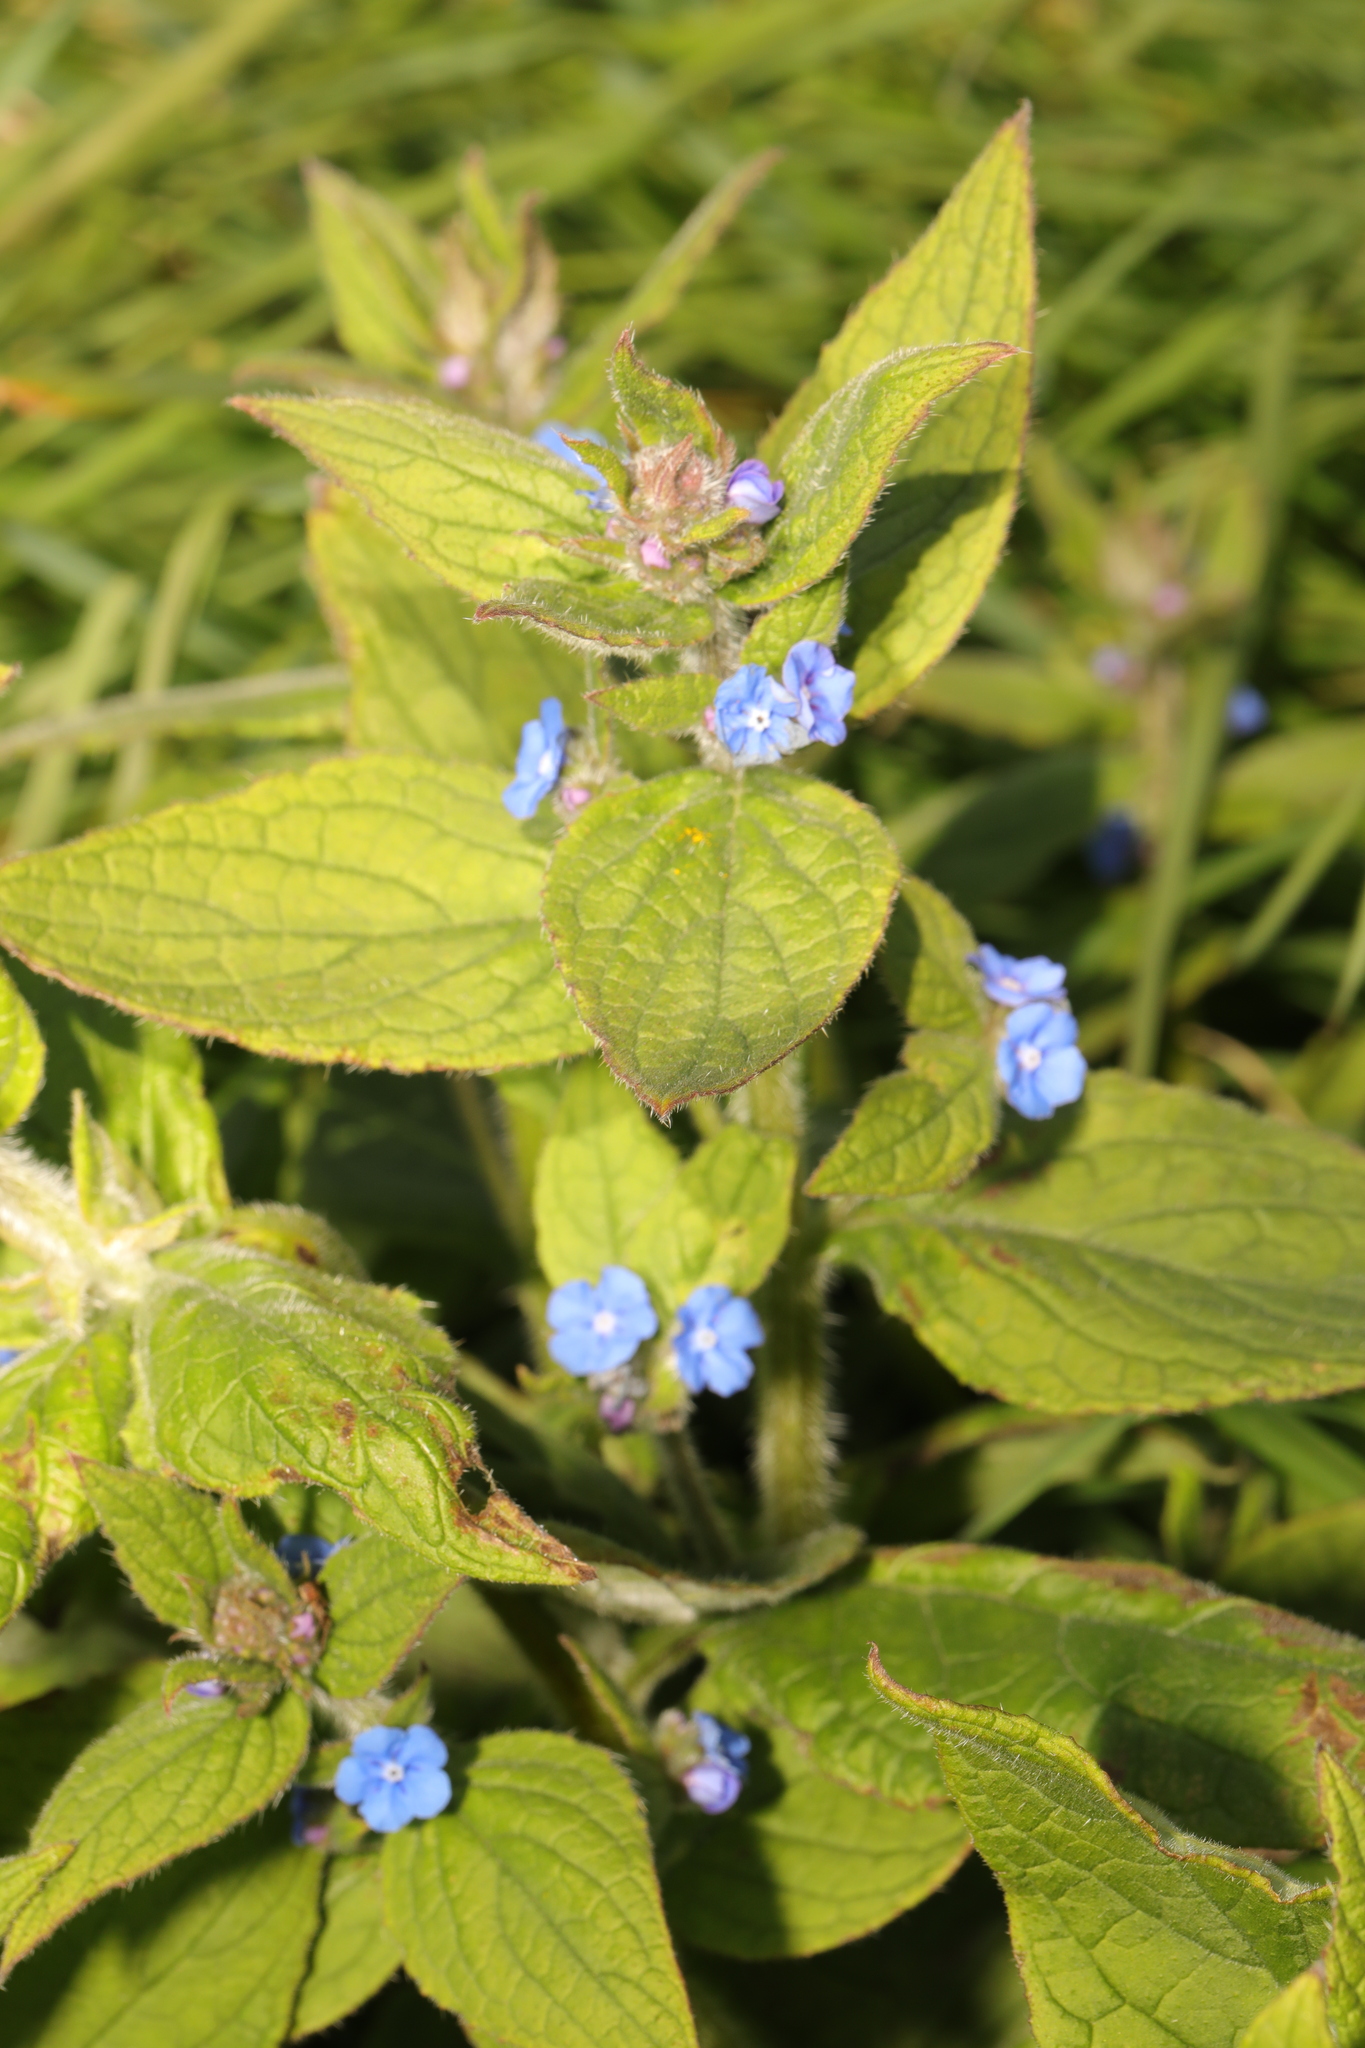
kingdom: Plantae
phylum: Tracheophyta
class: Magnoliopsida
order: Boraginales
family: Boraginaceae
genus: Pentaglottis
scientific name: Pentaglottis sempervirens
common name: Green alkanet
